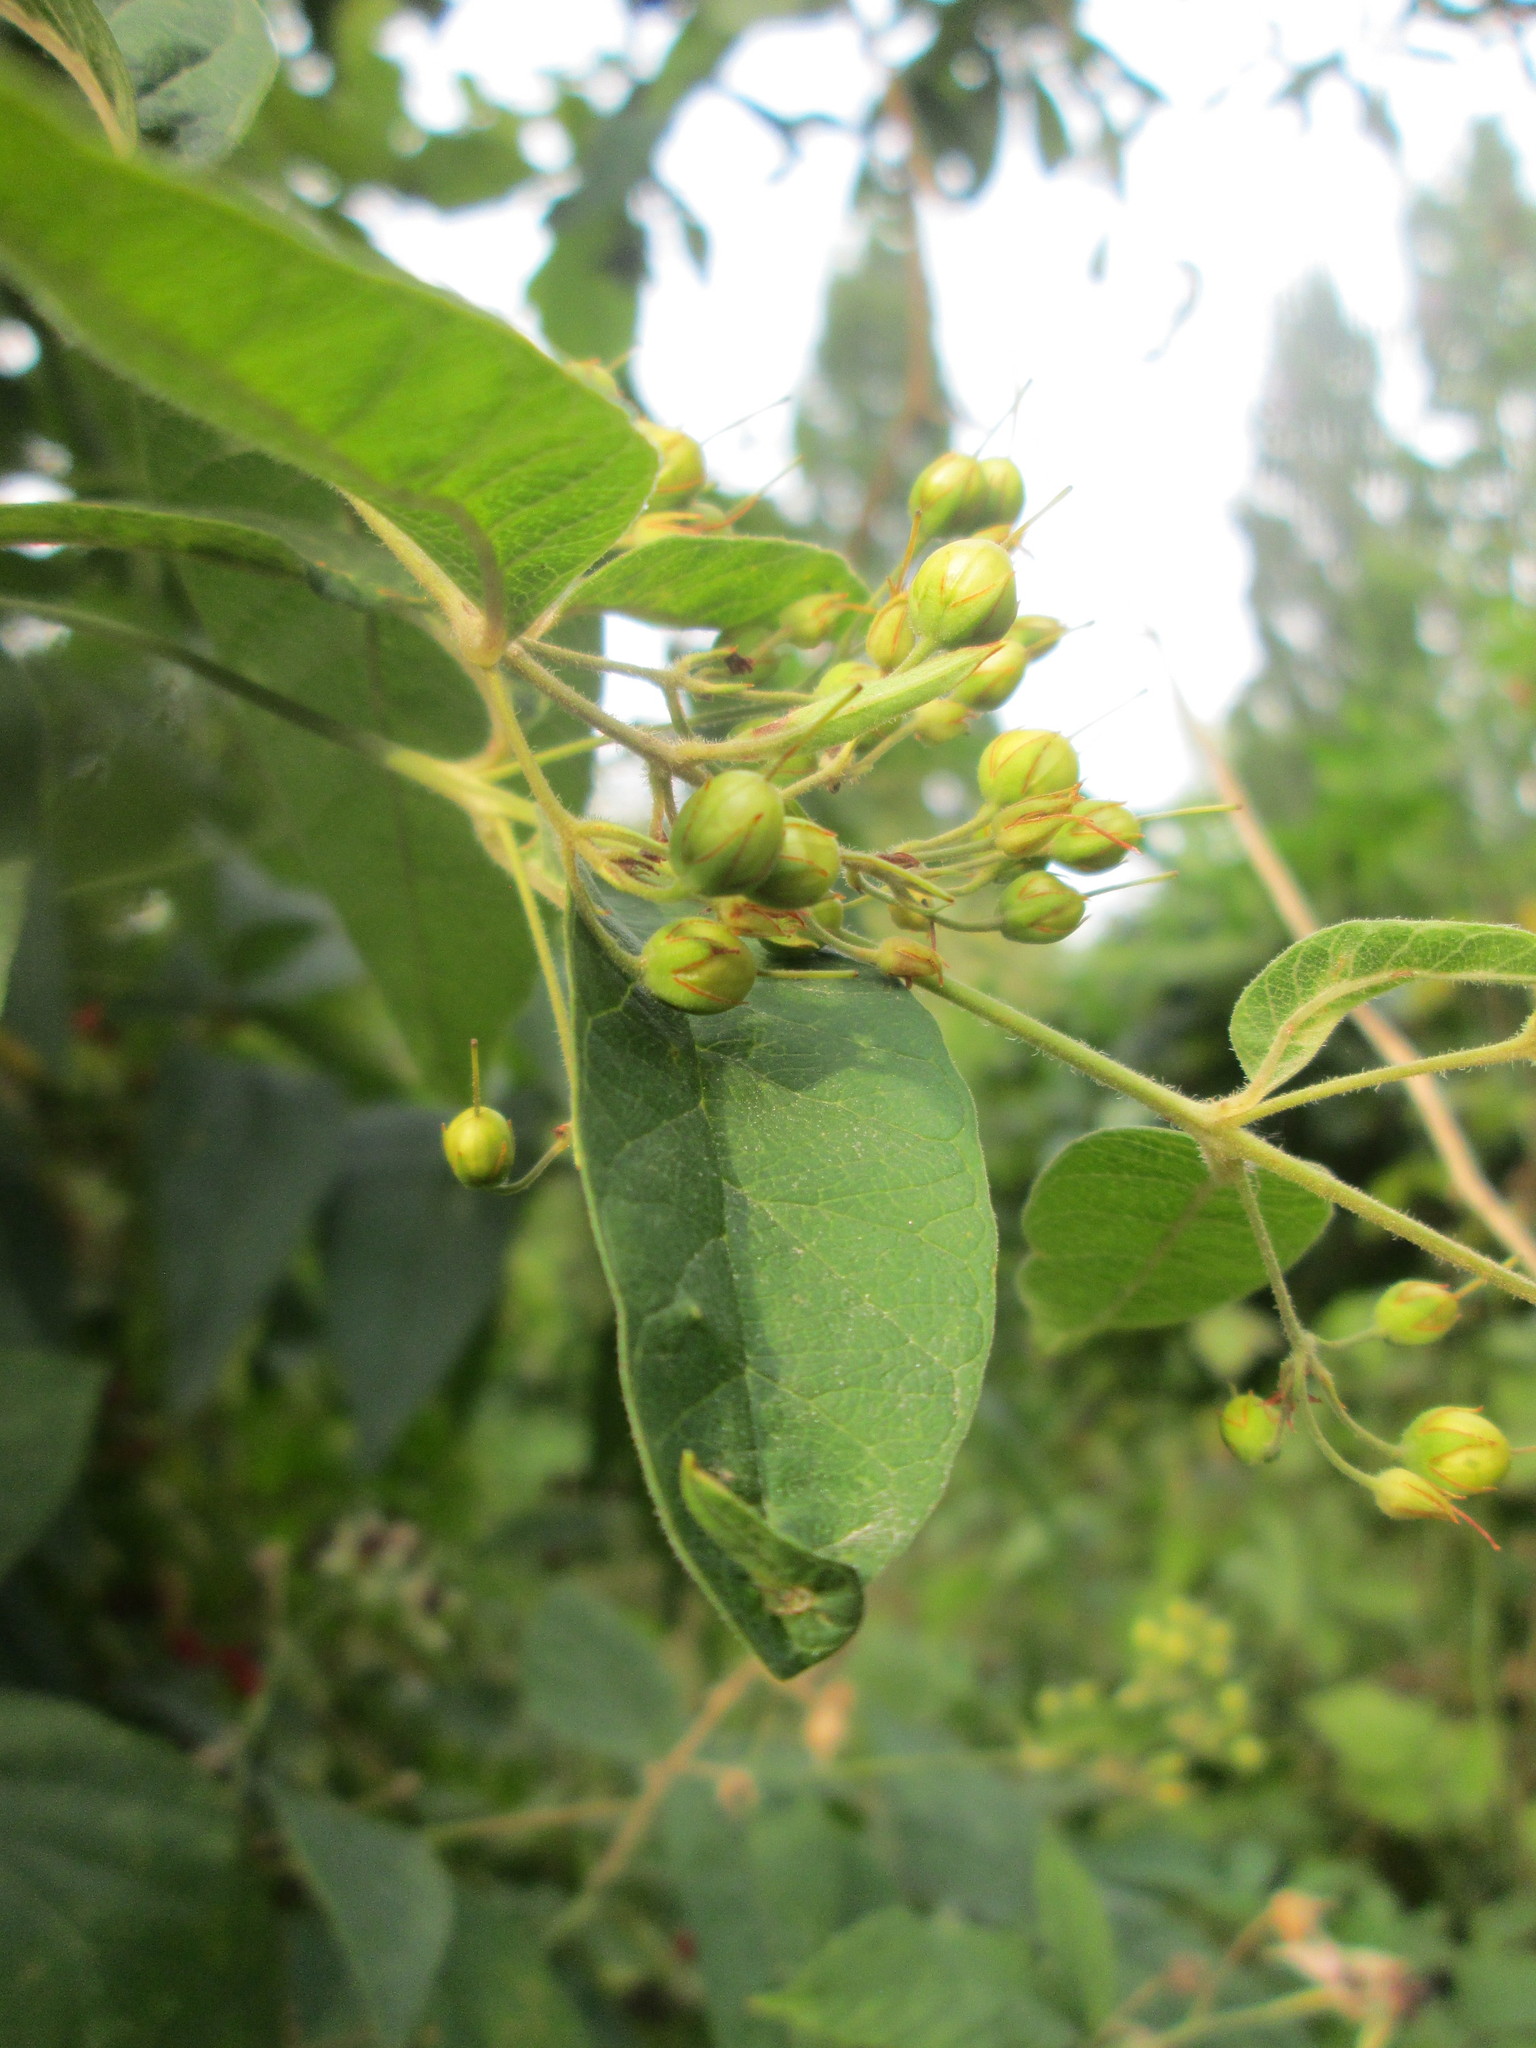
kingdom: Plantae
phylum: Tracheophyta
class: Magnoliopsida
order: Ericales
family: Primulaceae
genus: Lysimachia
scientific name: Lysimachia vulgaris
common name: Yellow loosestrife
